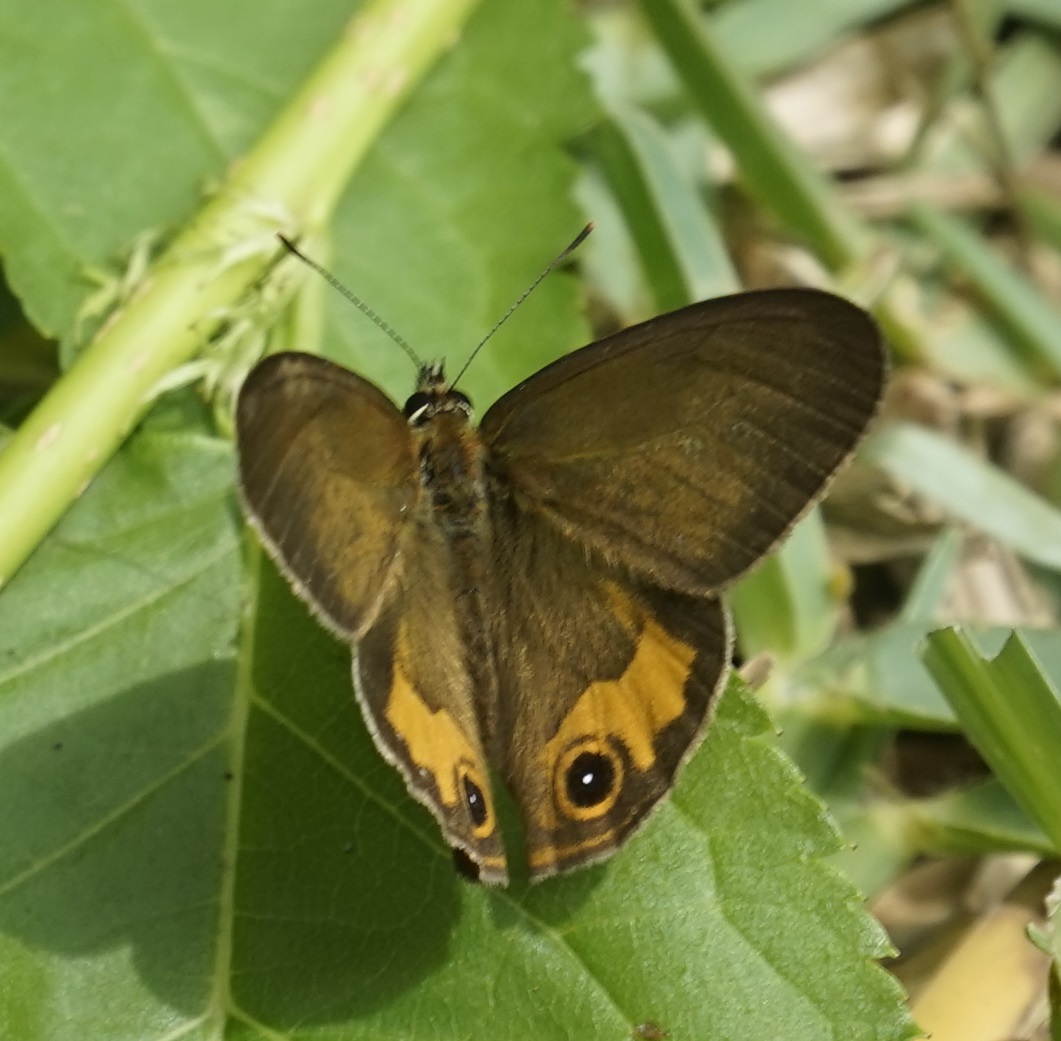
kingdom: Animalia
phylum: Arthropoda
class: Insecta
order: Lepidoptera
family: Nymphalidae
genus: Hypocysta
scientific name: Hypocysta metirius
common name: Brown ringlet
